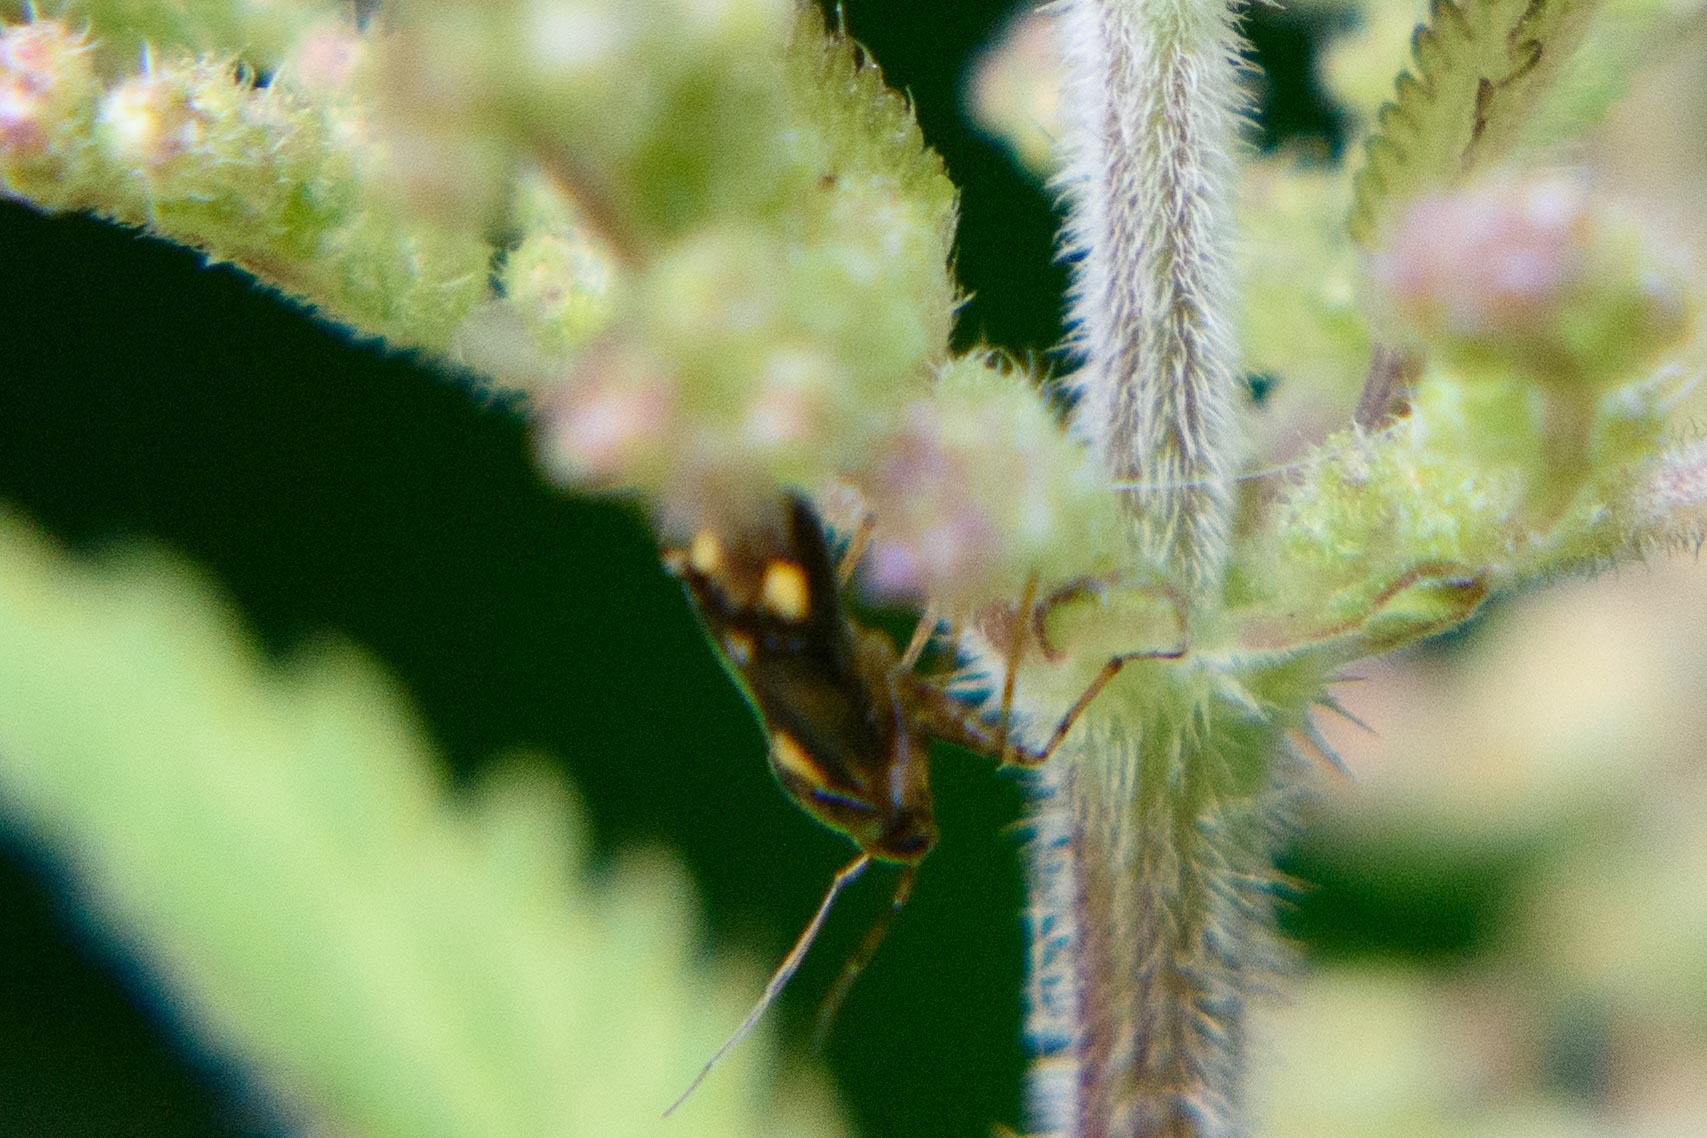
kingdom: Animalia
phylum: Arthropoda
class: Insecta
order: Hemiptera
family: Miridae
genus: Liocoris
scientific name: Liocoris tripustulatus
